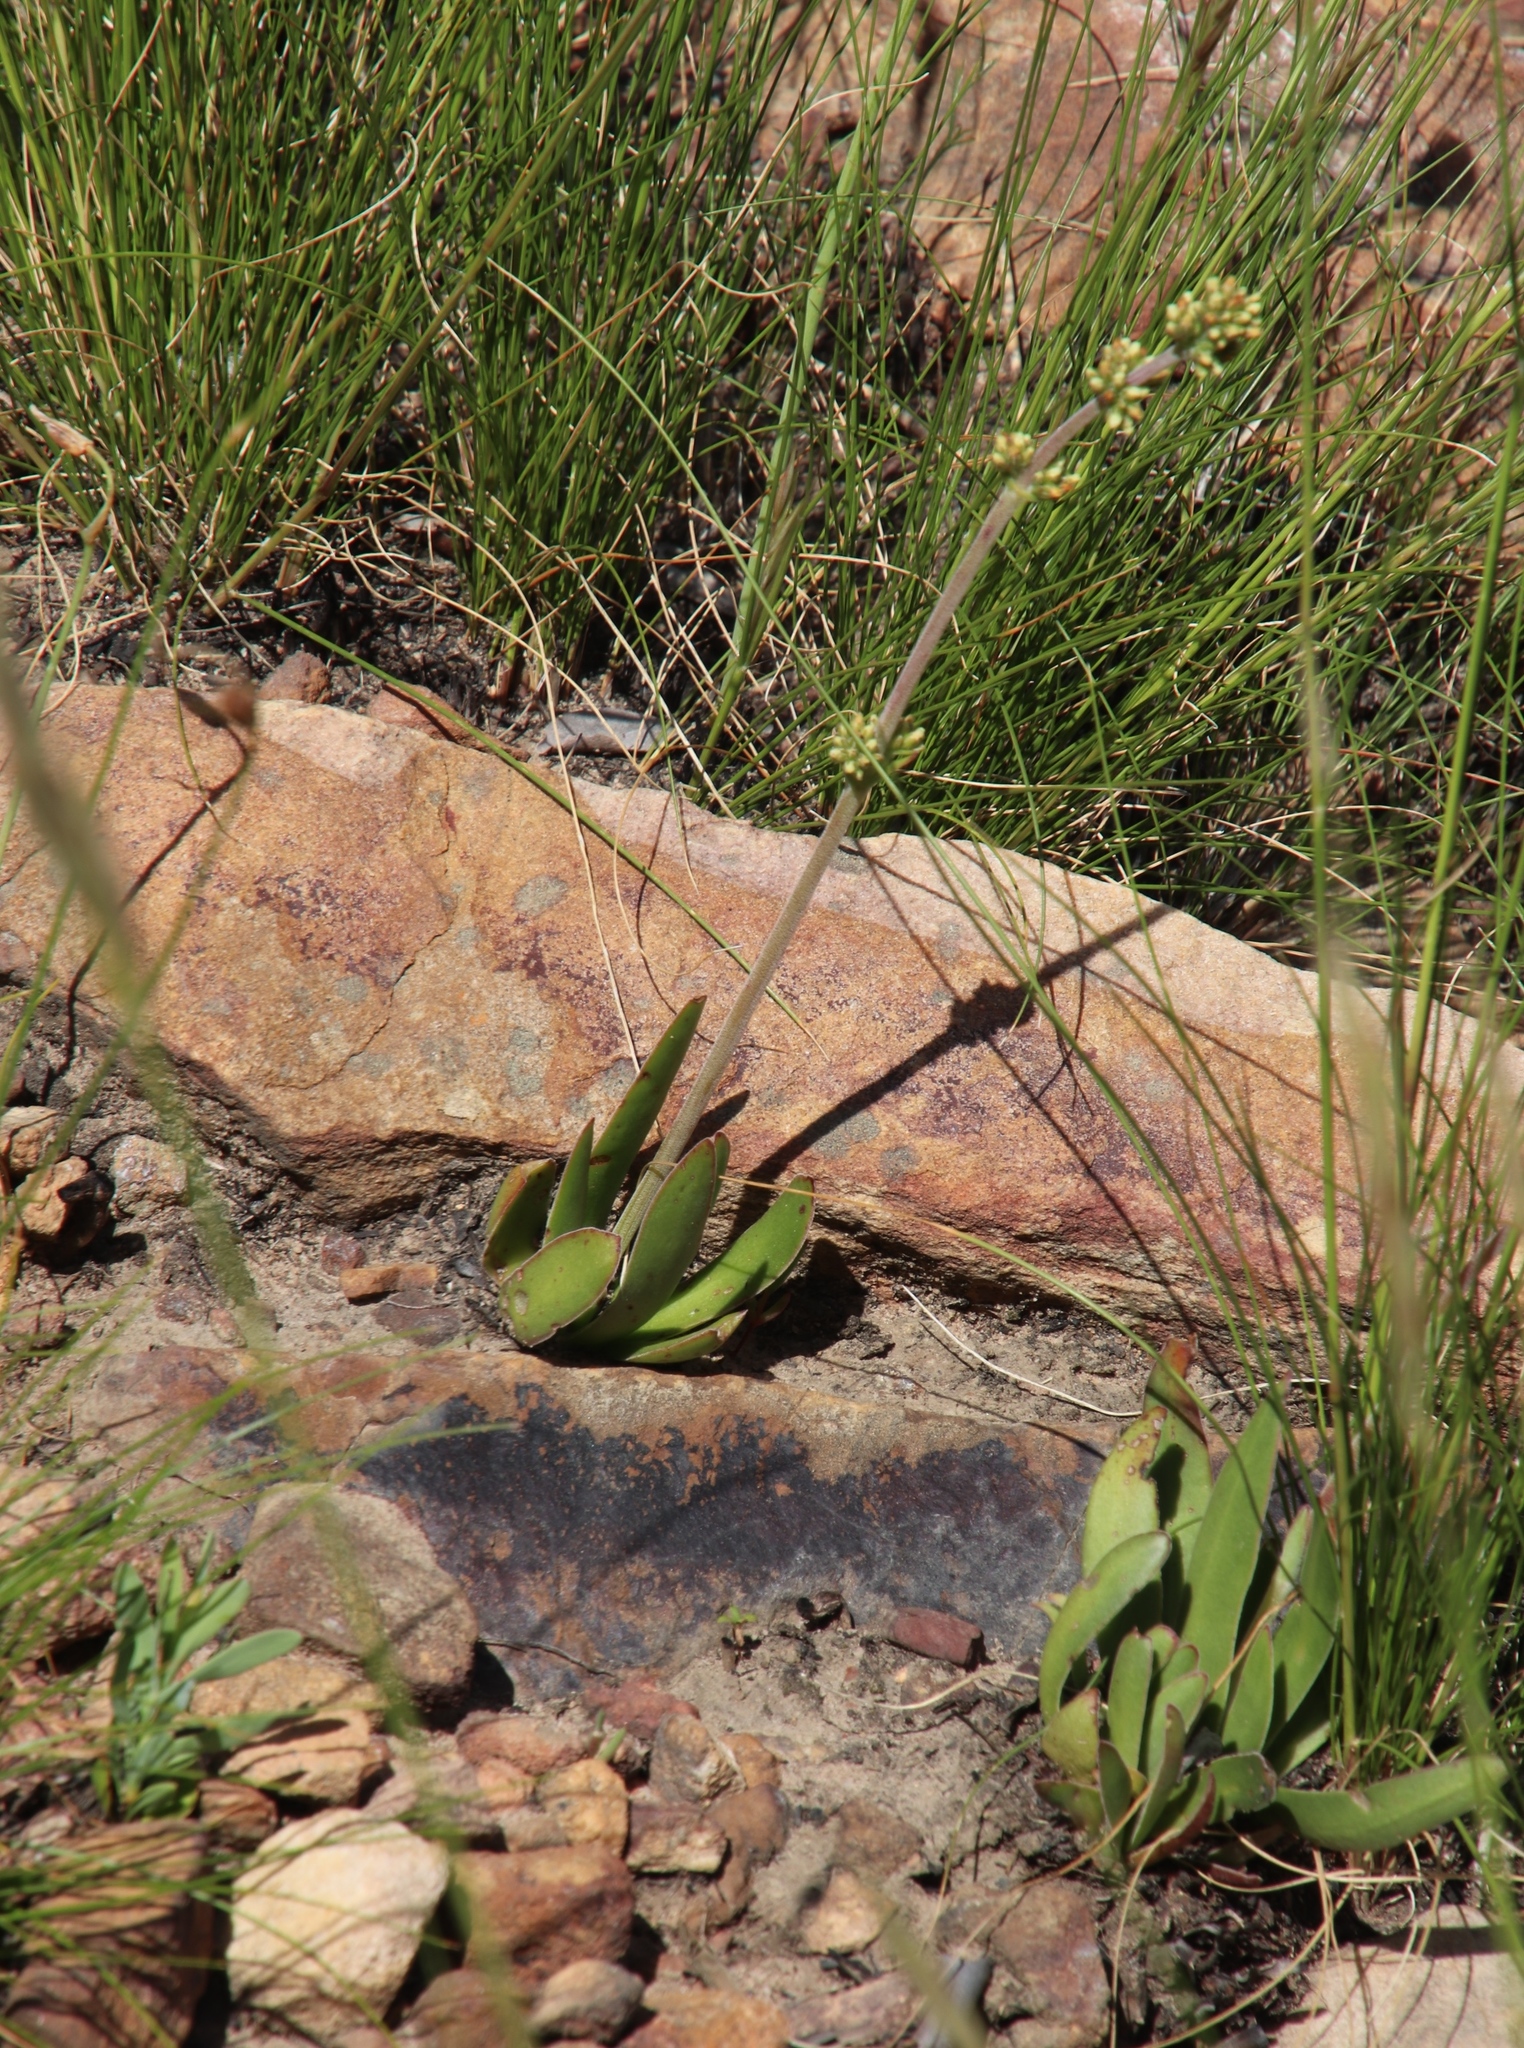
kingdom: Plantae
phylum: Tracheophyta
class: Magnoliopsida
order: Saxifragales
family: Crassulaceae
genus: Crassula
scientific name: Crassula nudicaulis
